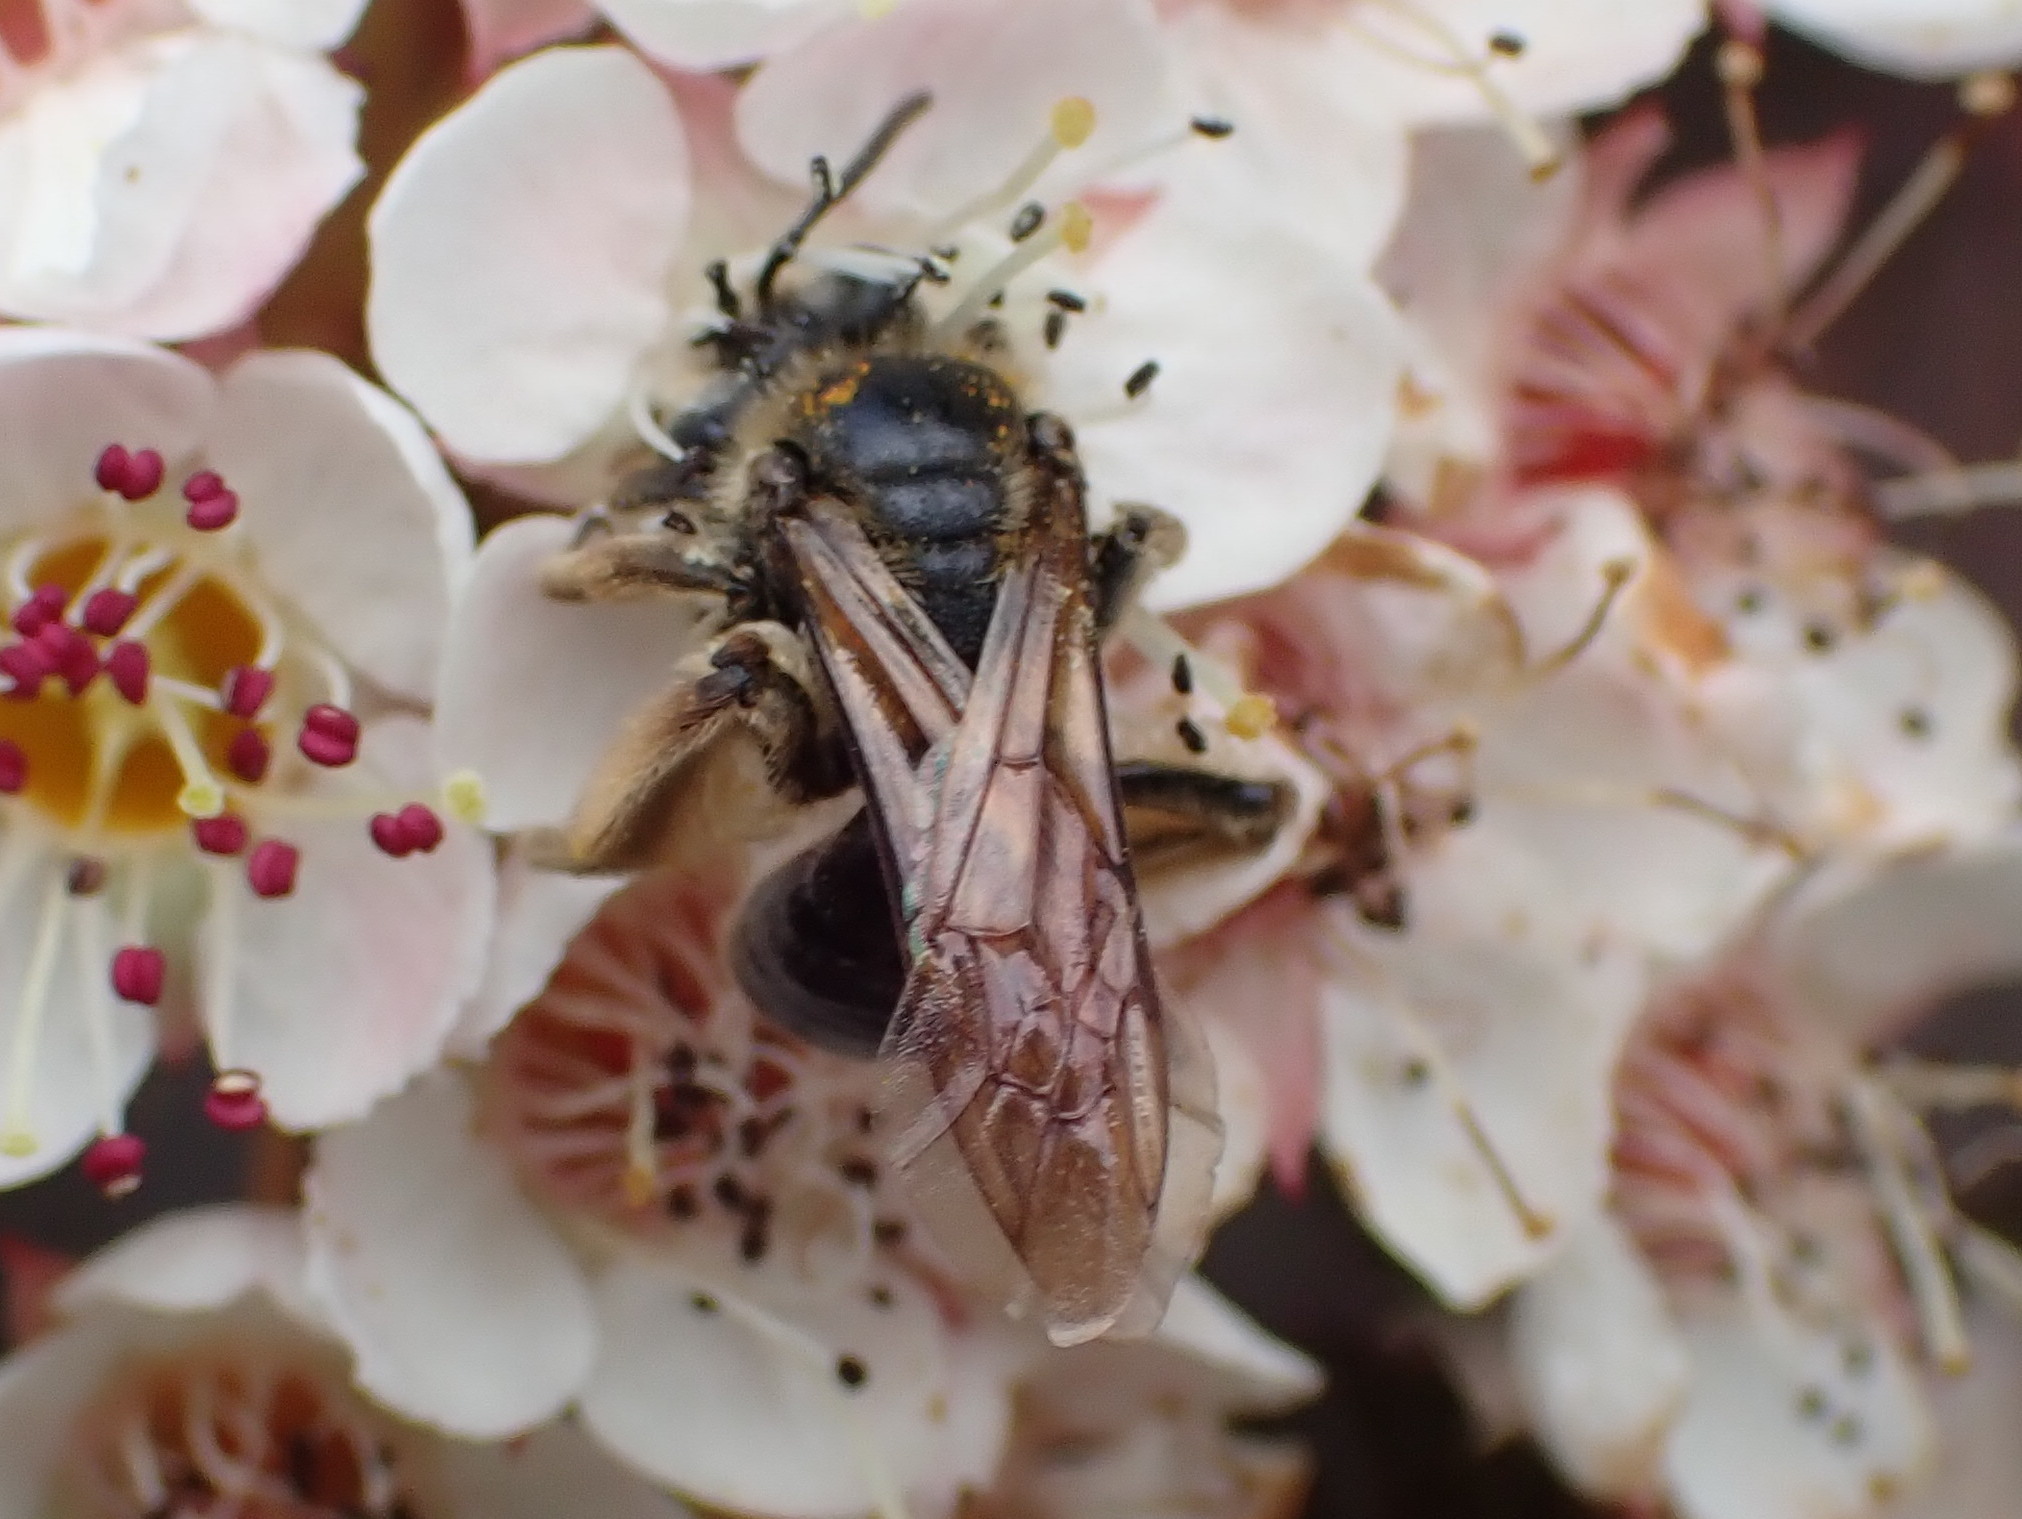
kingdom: Animalia
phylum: Arthropoda
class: Insecta
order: Hymenoptera
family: Andrenidae
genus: Andrena
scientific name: Andrena crataegi
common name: Hawthorn mining bee
